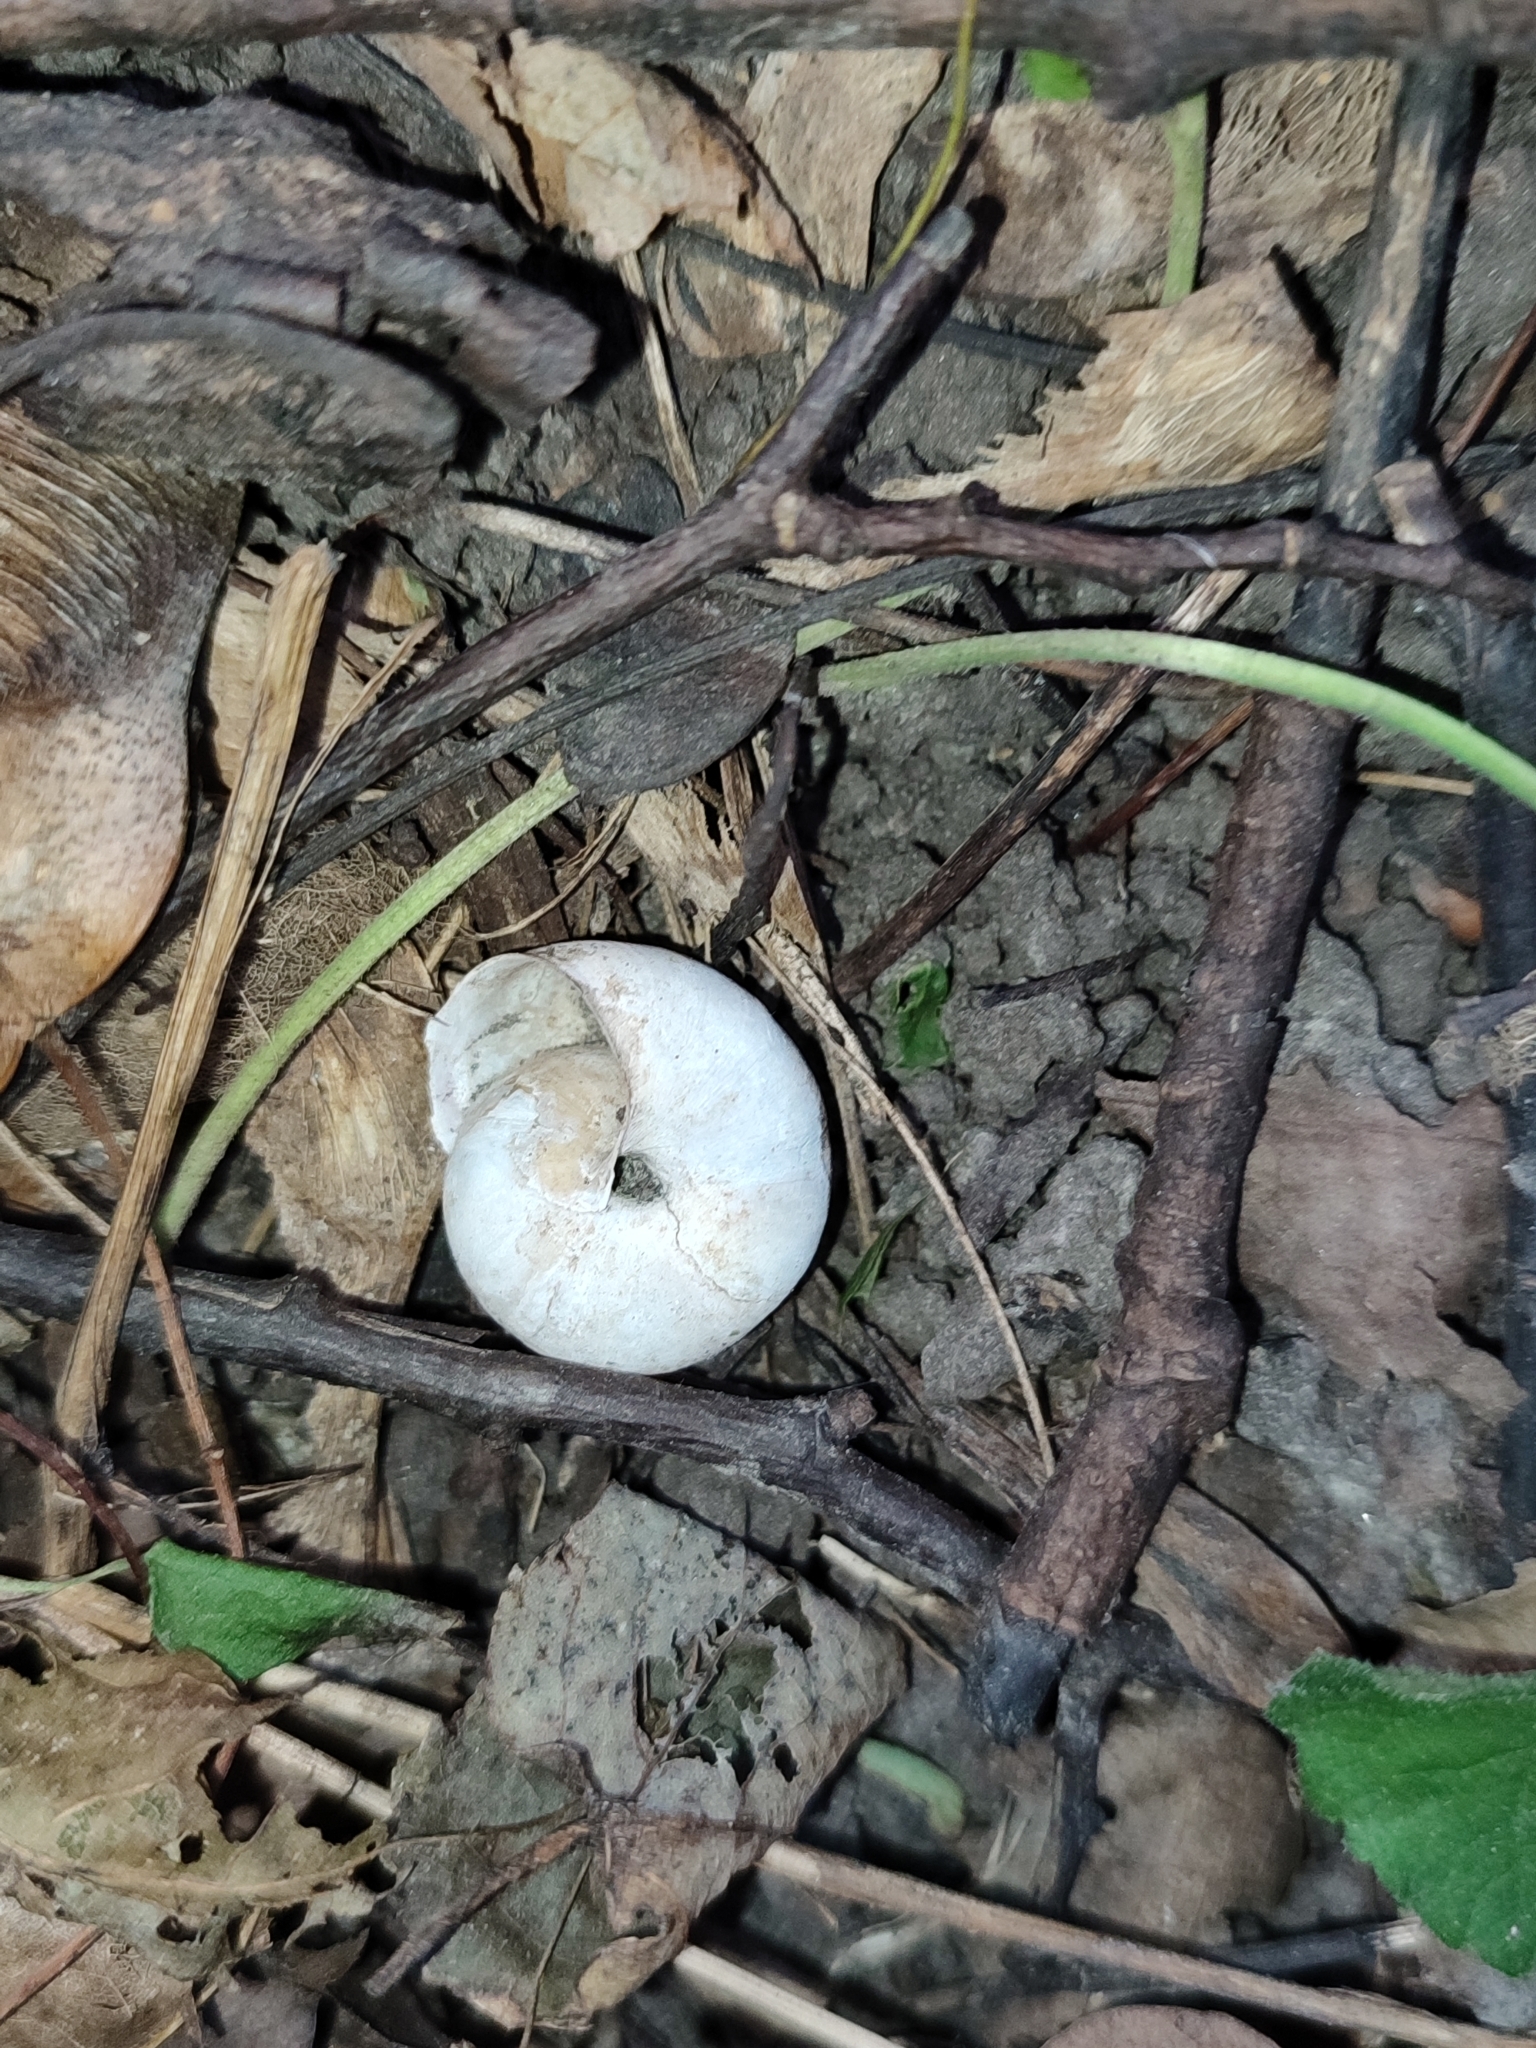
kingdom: Animalia
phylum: Mollusca
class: Gastropoda
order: Stylommatophora
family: Camaenidae
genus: Fruticicola
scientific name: Fruticicola fruticum
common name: Bush snail
